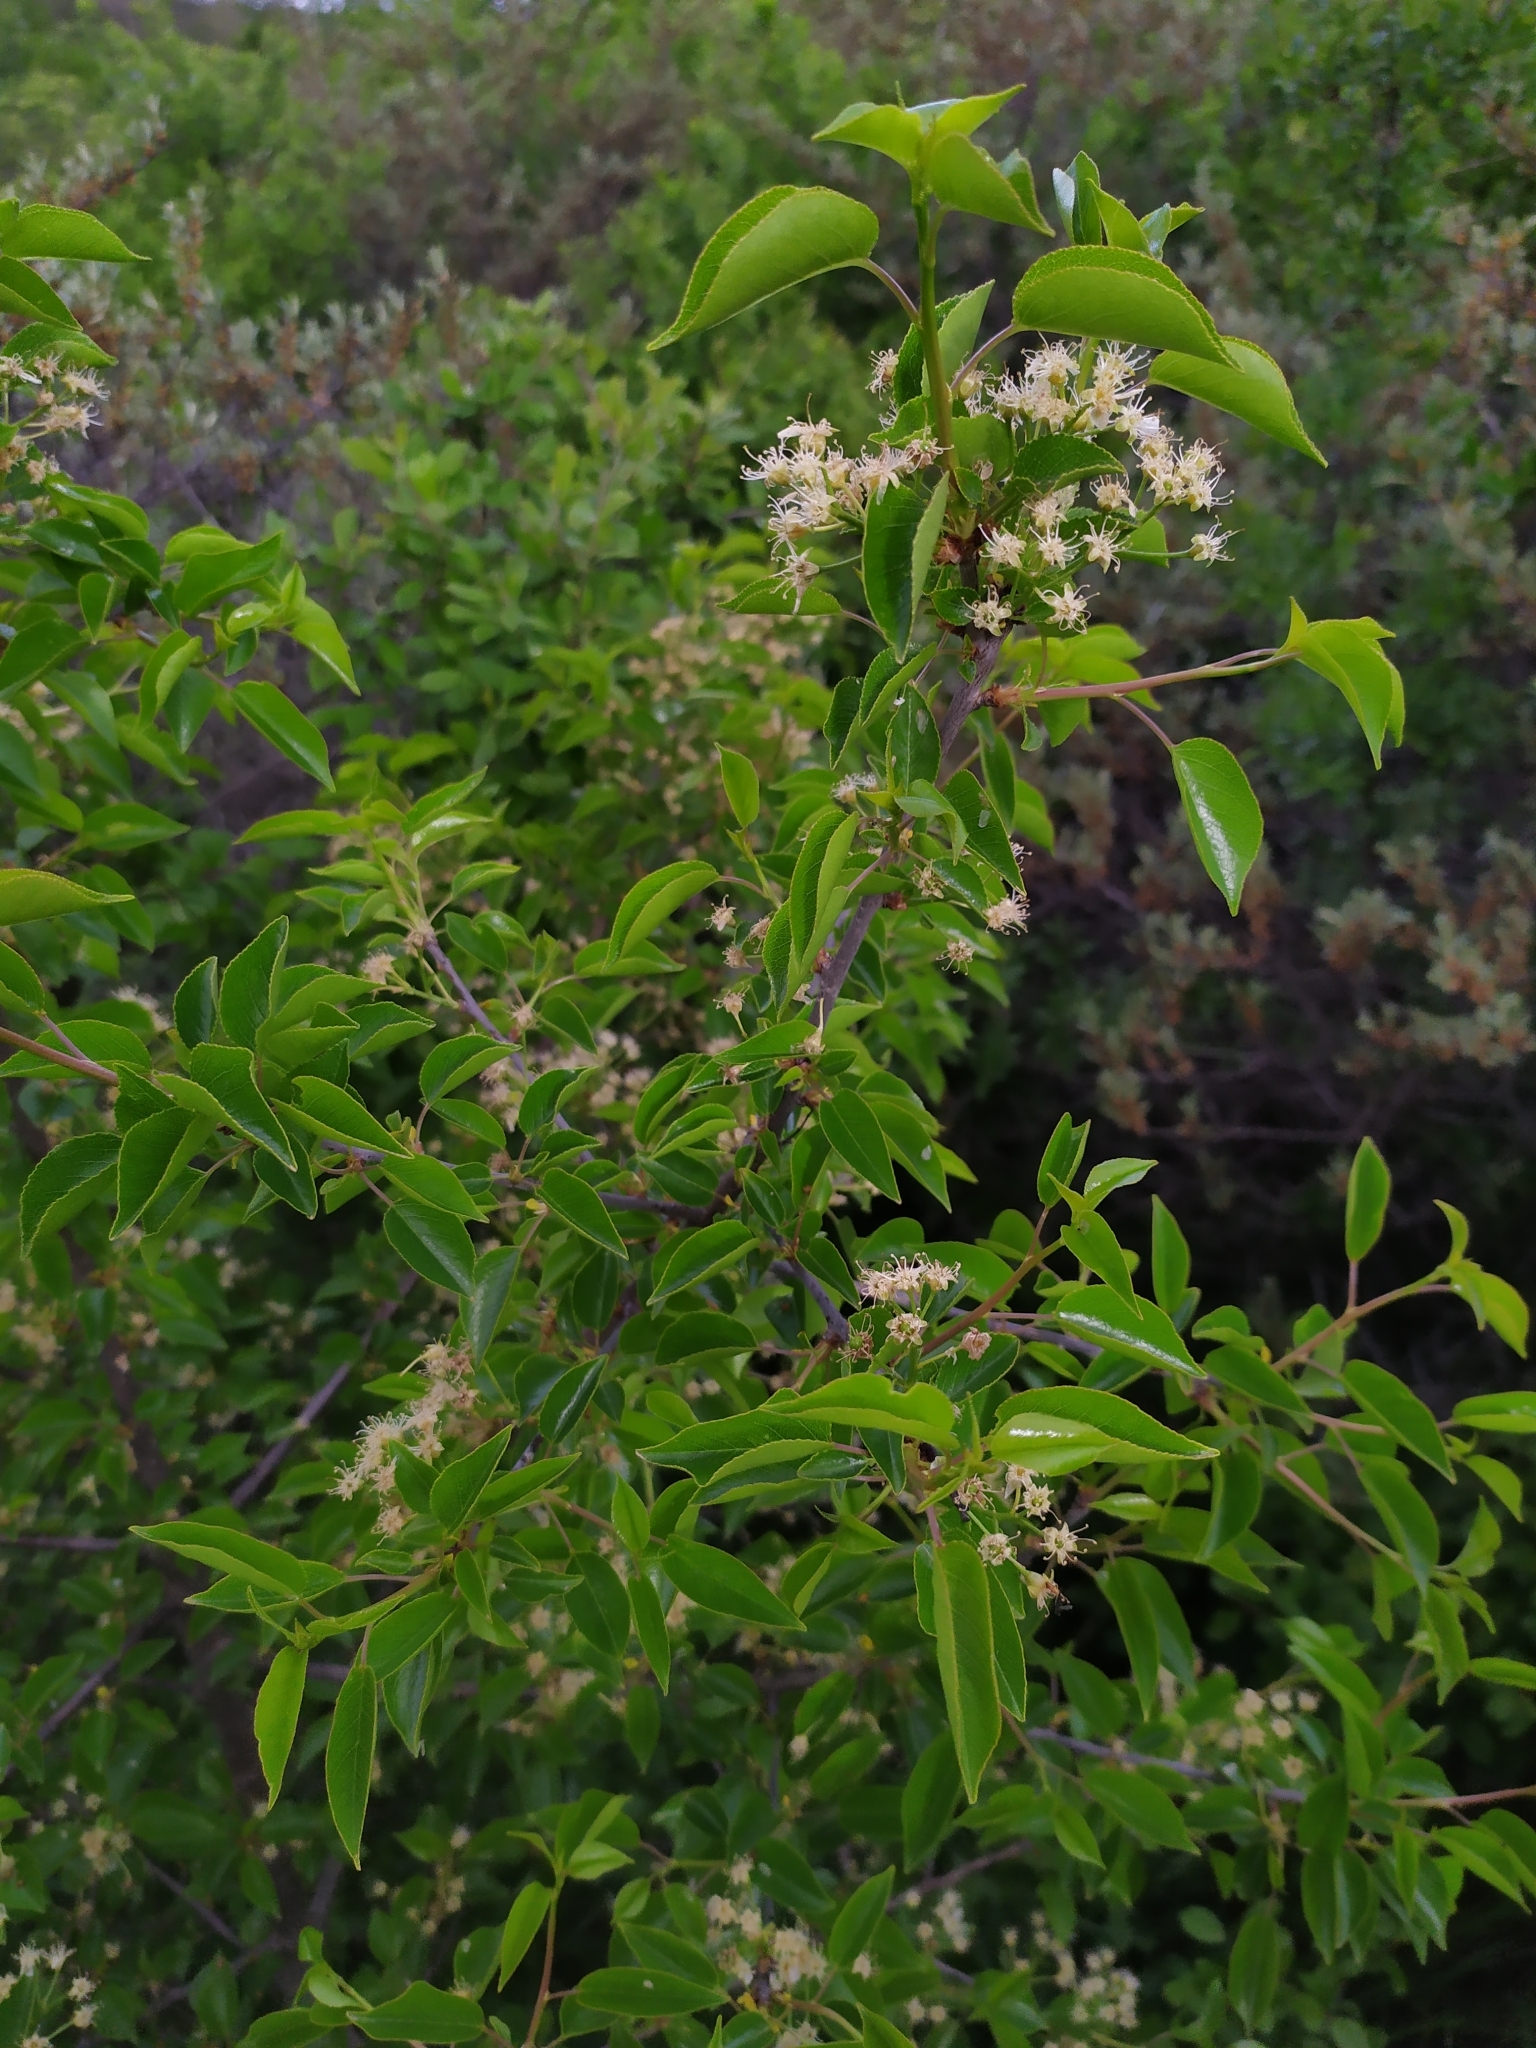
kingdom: Plantae
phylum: Tracheophyta
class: Magnoliopsida
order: Rosales
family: Rosaceae
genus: Prunus
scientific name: Prunus mahaleb
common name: Mahaleb cherry
